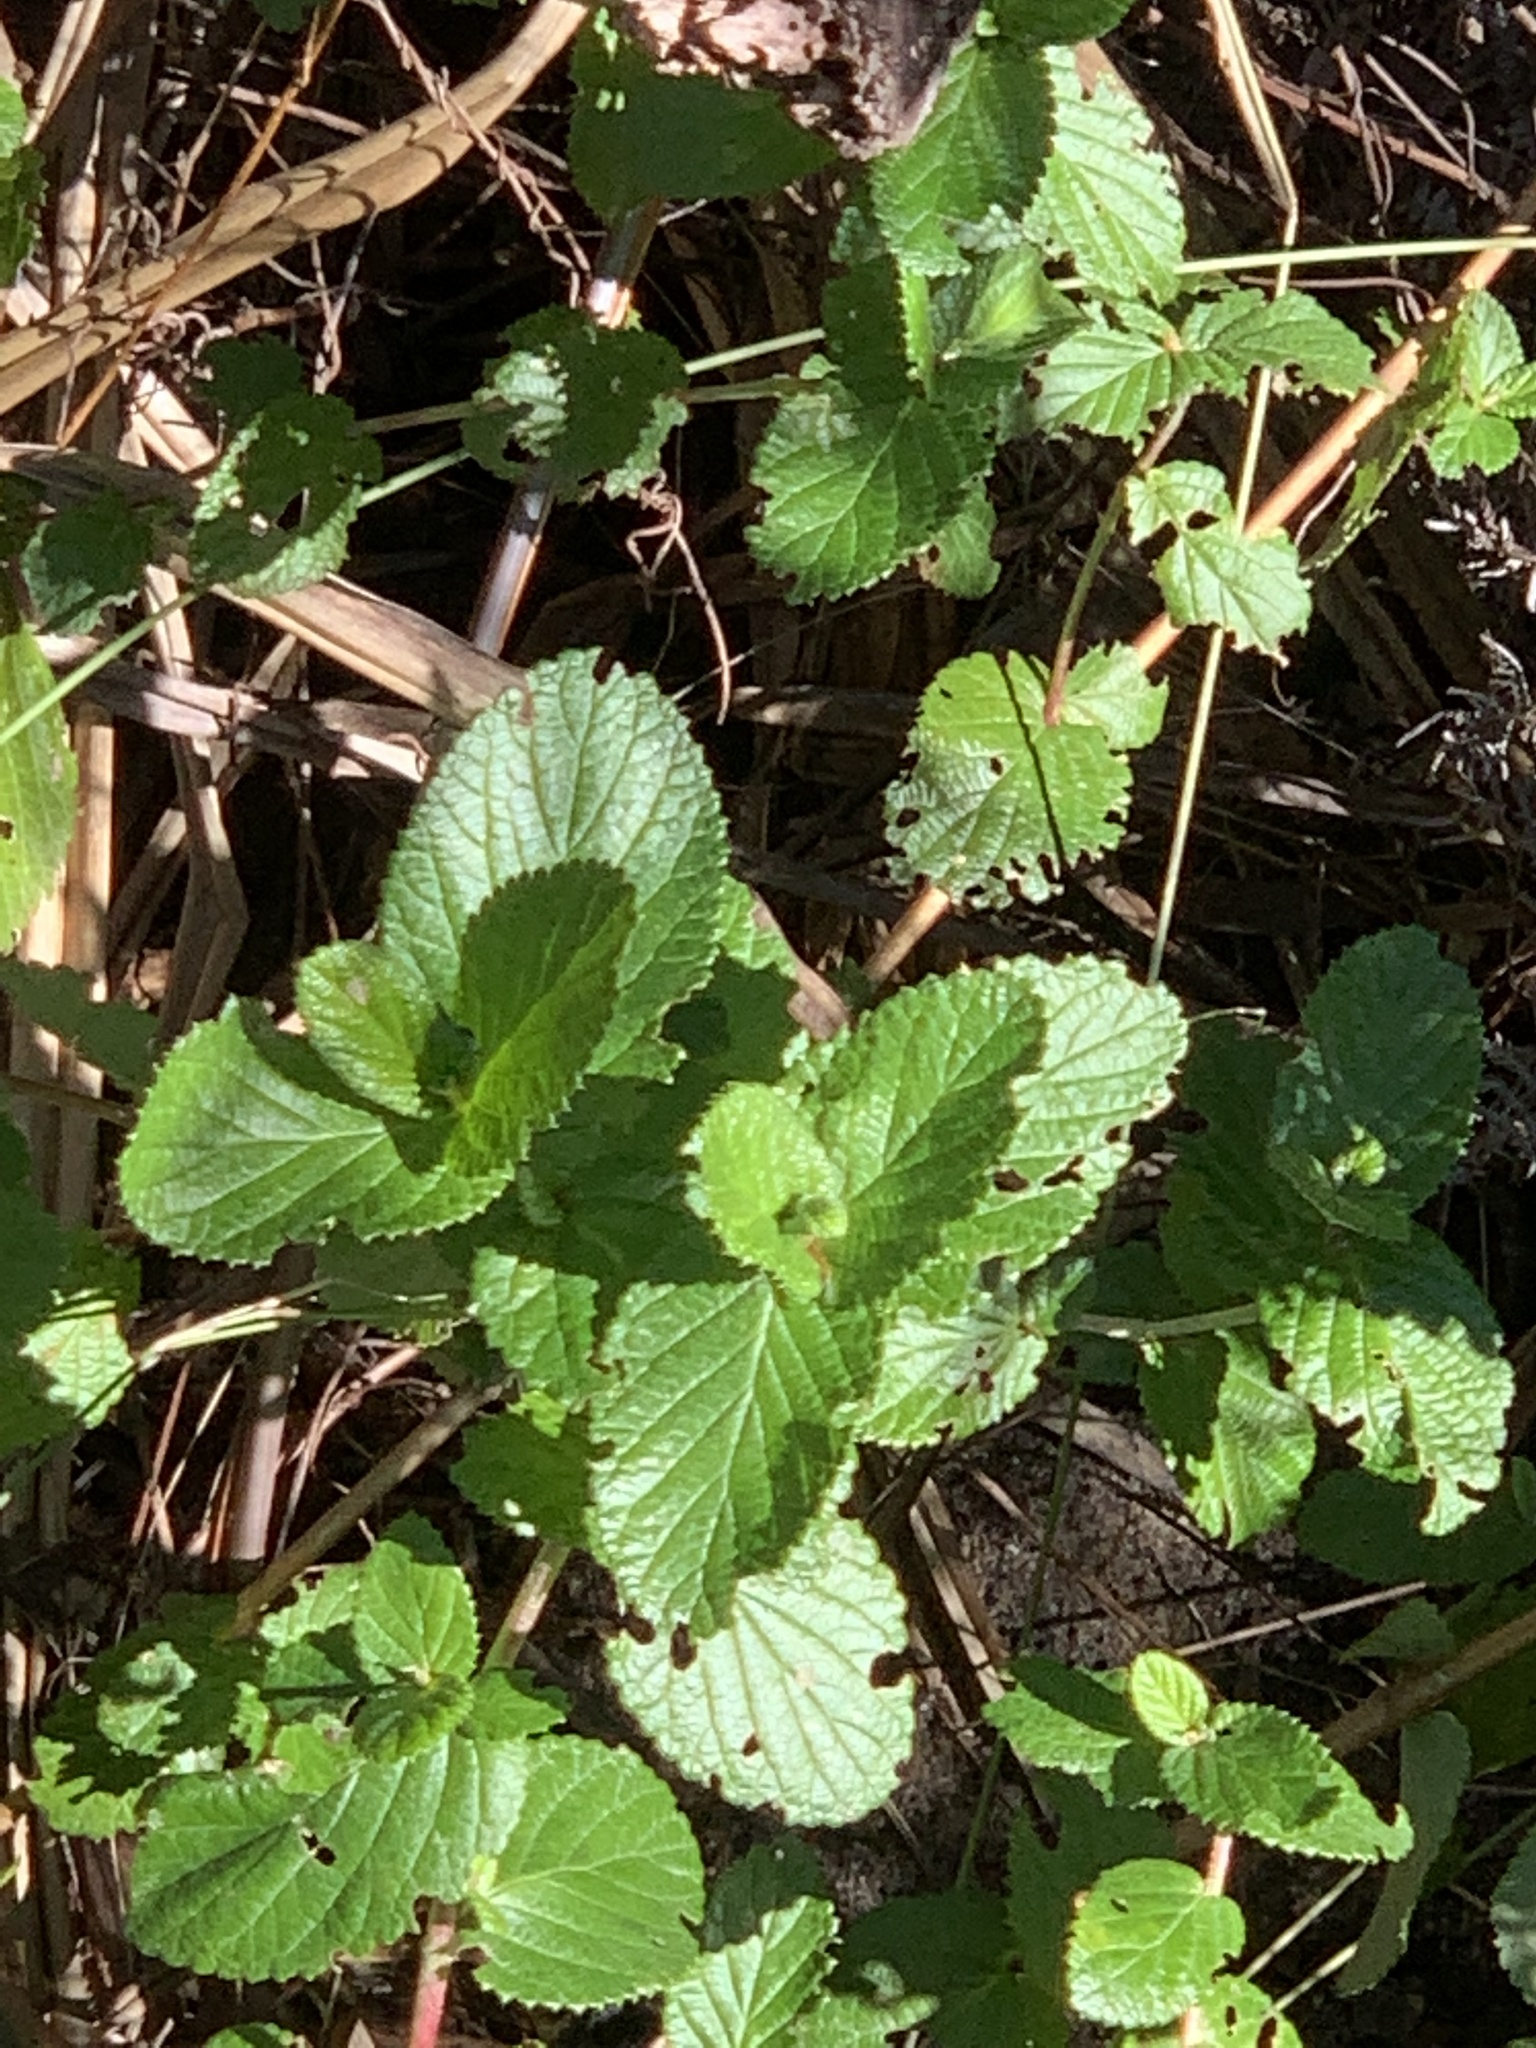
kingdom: Plantae
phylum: Tracheophyta
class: Magnoliopsida
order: Rosales
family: Rosaceae
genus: Cliffortia
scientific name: Cliffortia odorata
